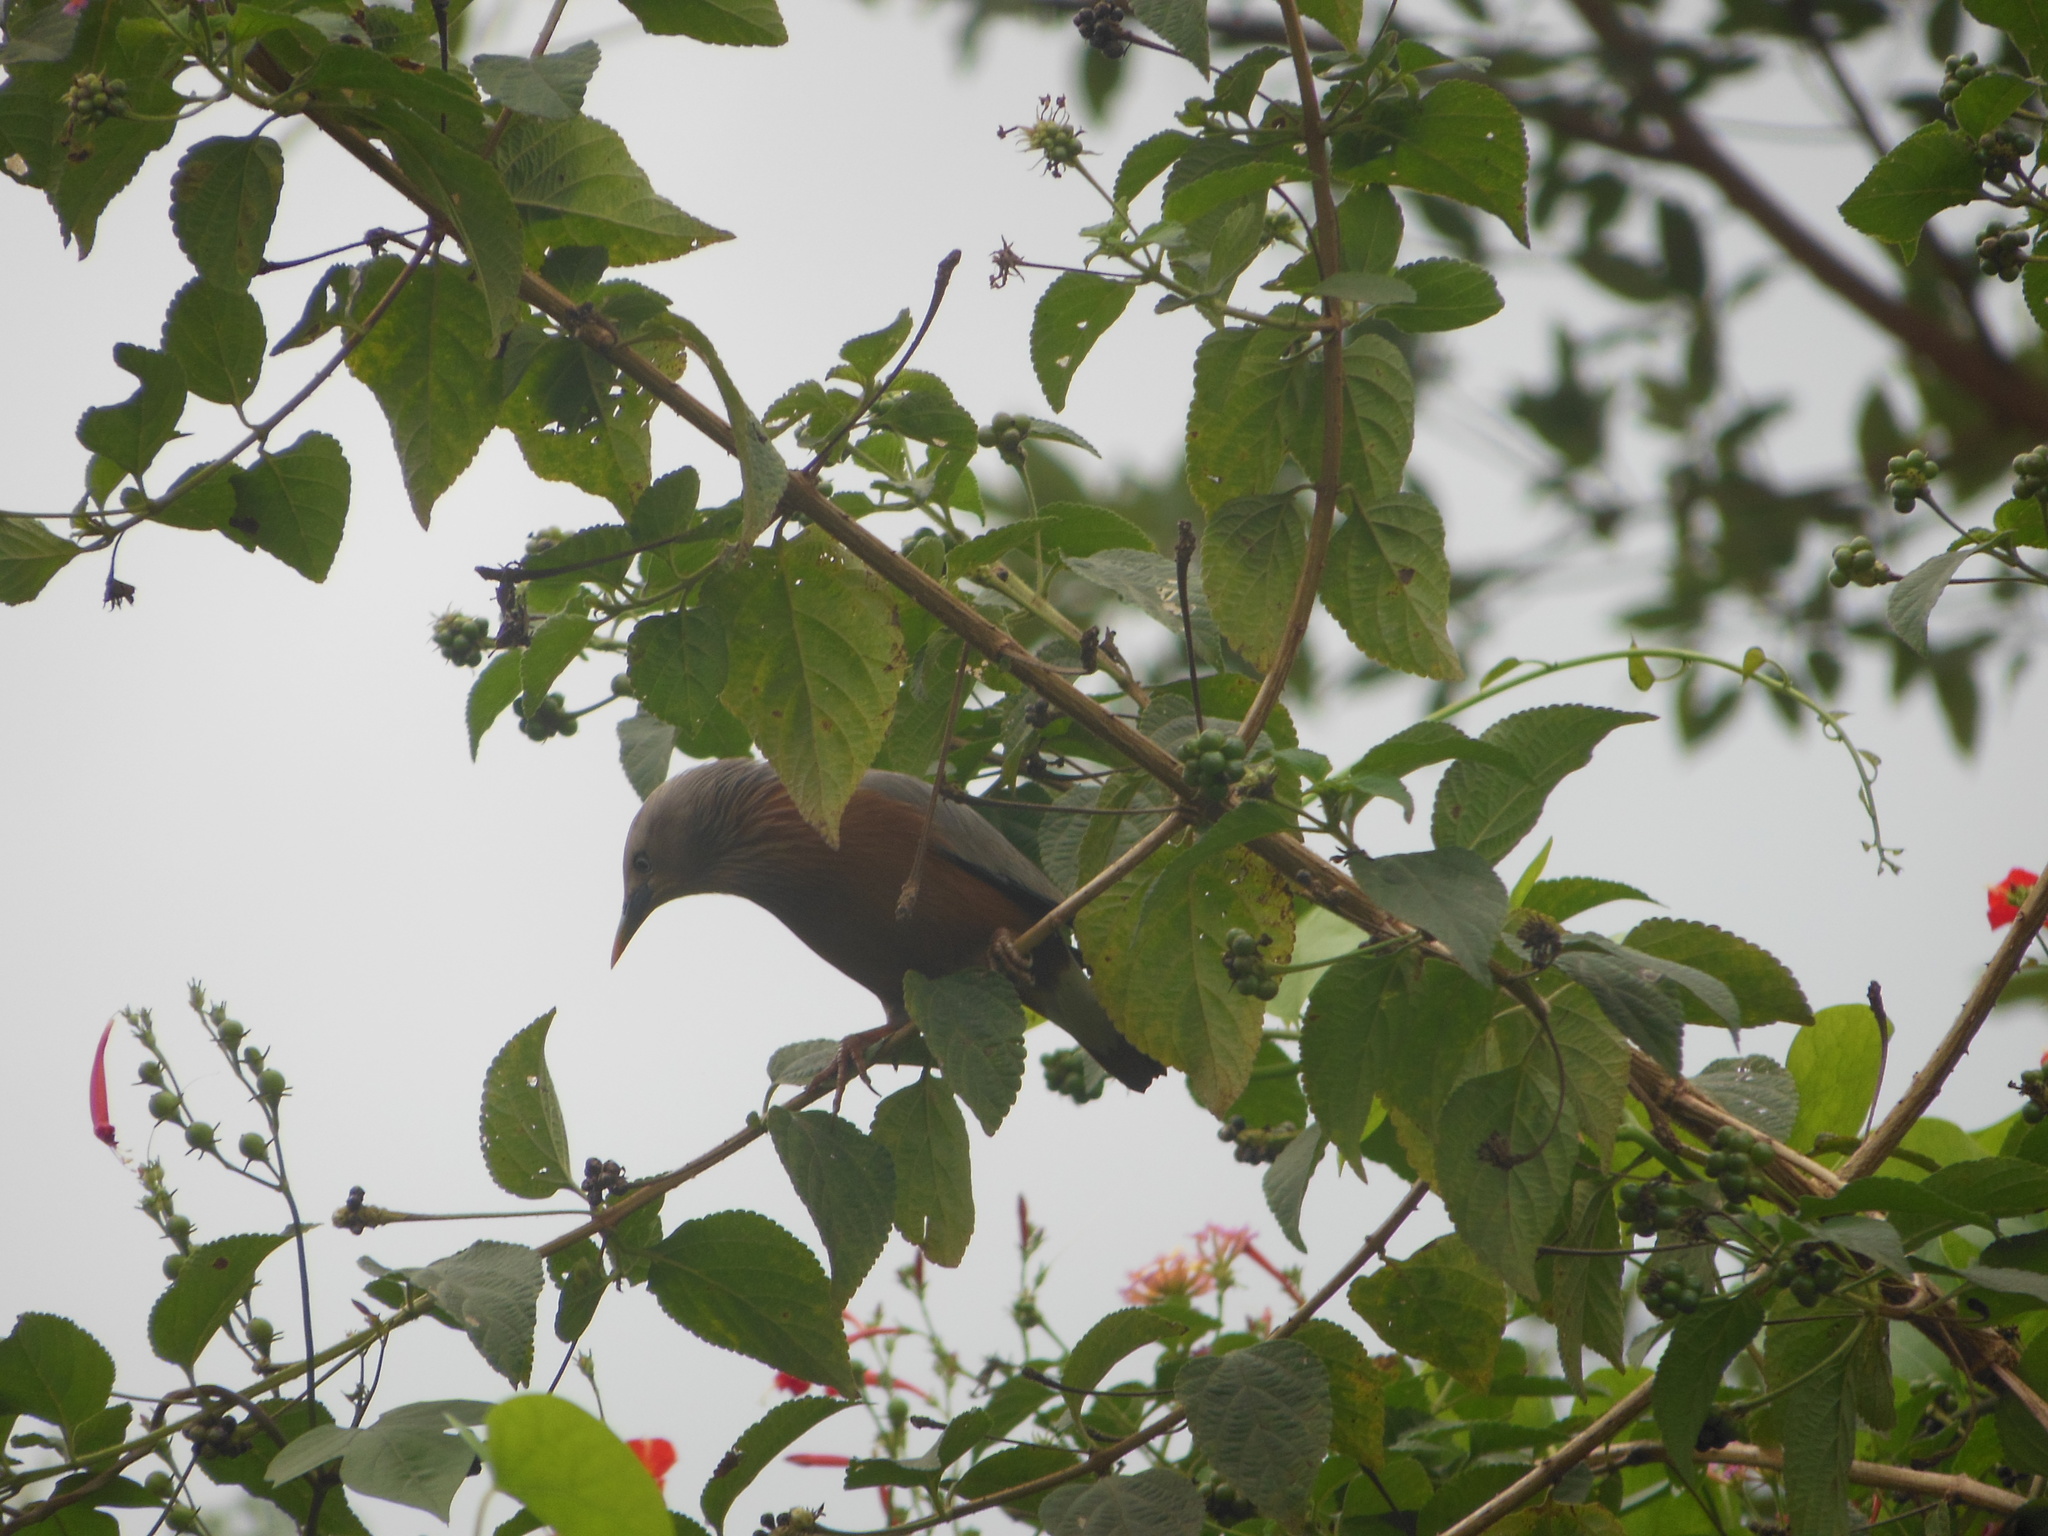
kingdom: Animalia
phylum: Chordata
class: Aves
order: Passeriformes
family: Sturnidae
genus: Sturnia
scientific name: Sturnia malabarica
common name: Chestnut-tailed starling
